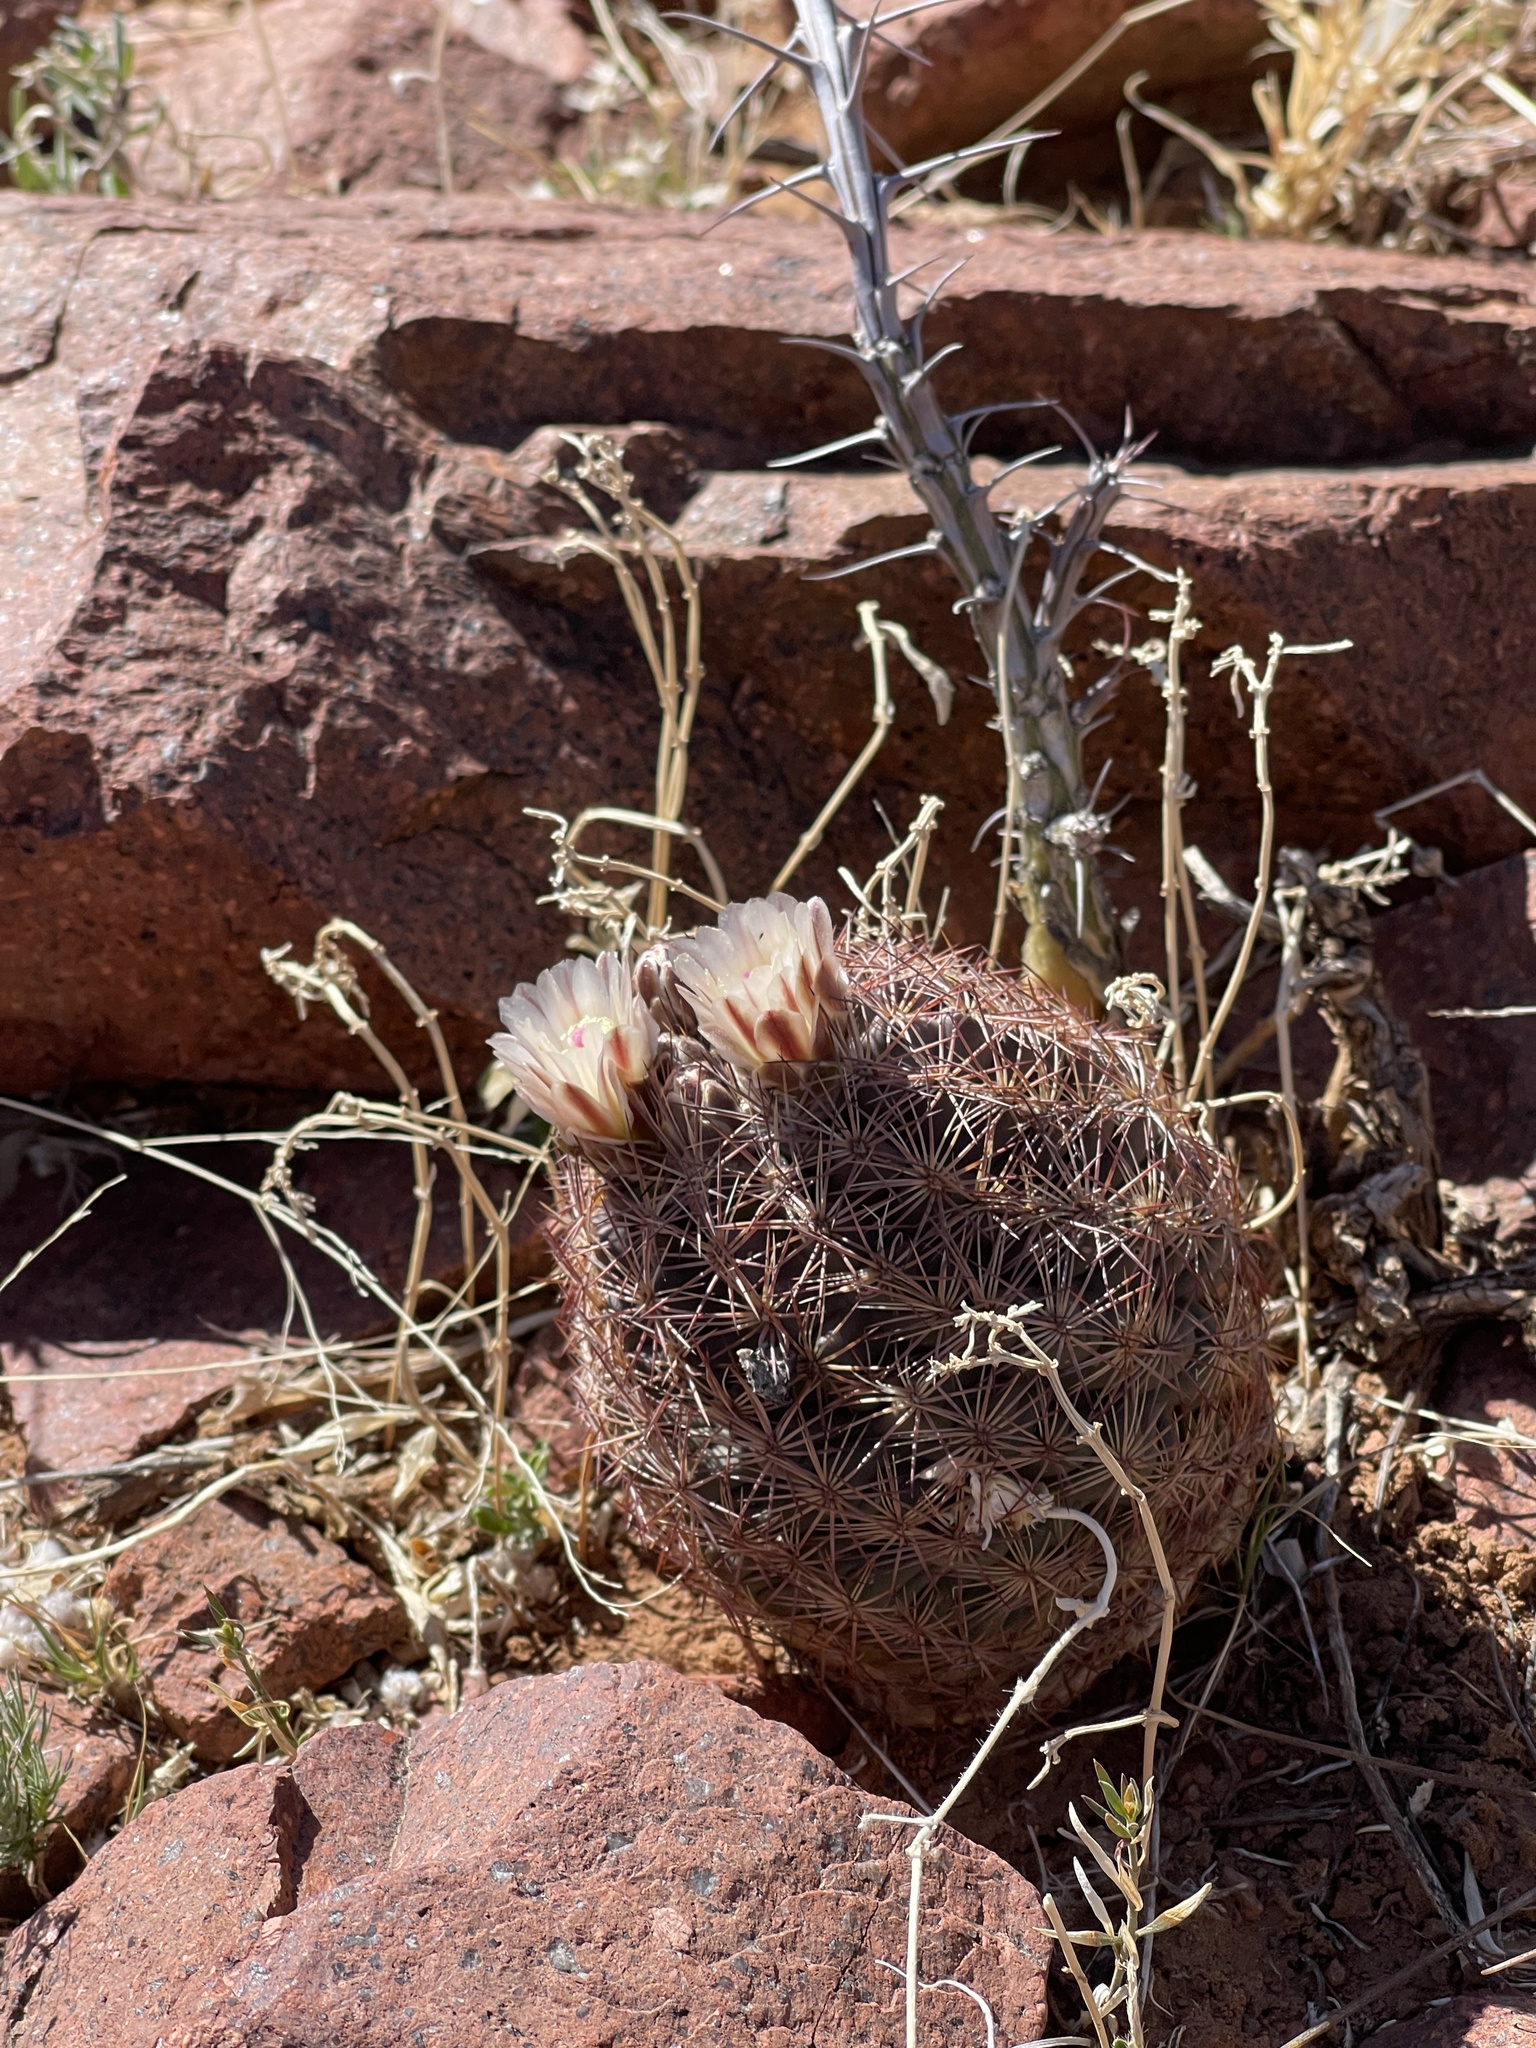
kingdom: Plantae
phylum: Tracheophyta
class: Magnoliopsida
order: Caryophyllales
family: Cactaceae
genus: Sclerocactus
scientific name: Sclerocactus intertextus
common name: White fish-hook cactus
